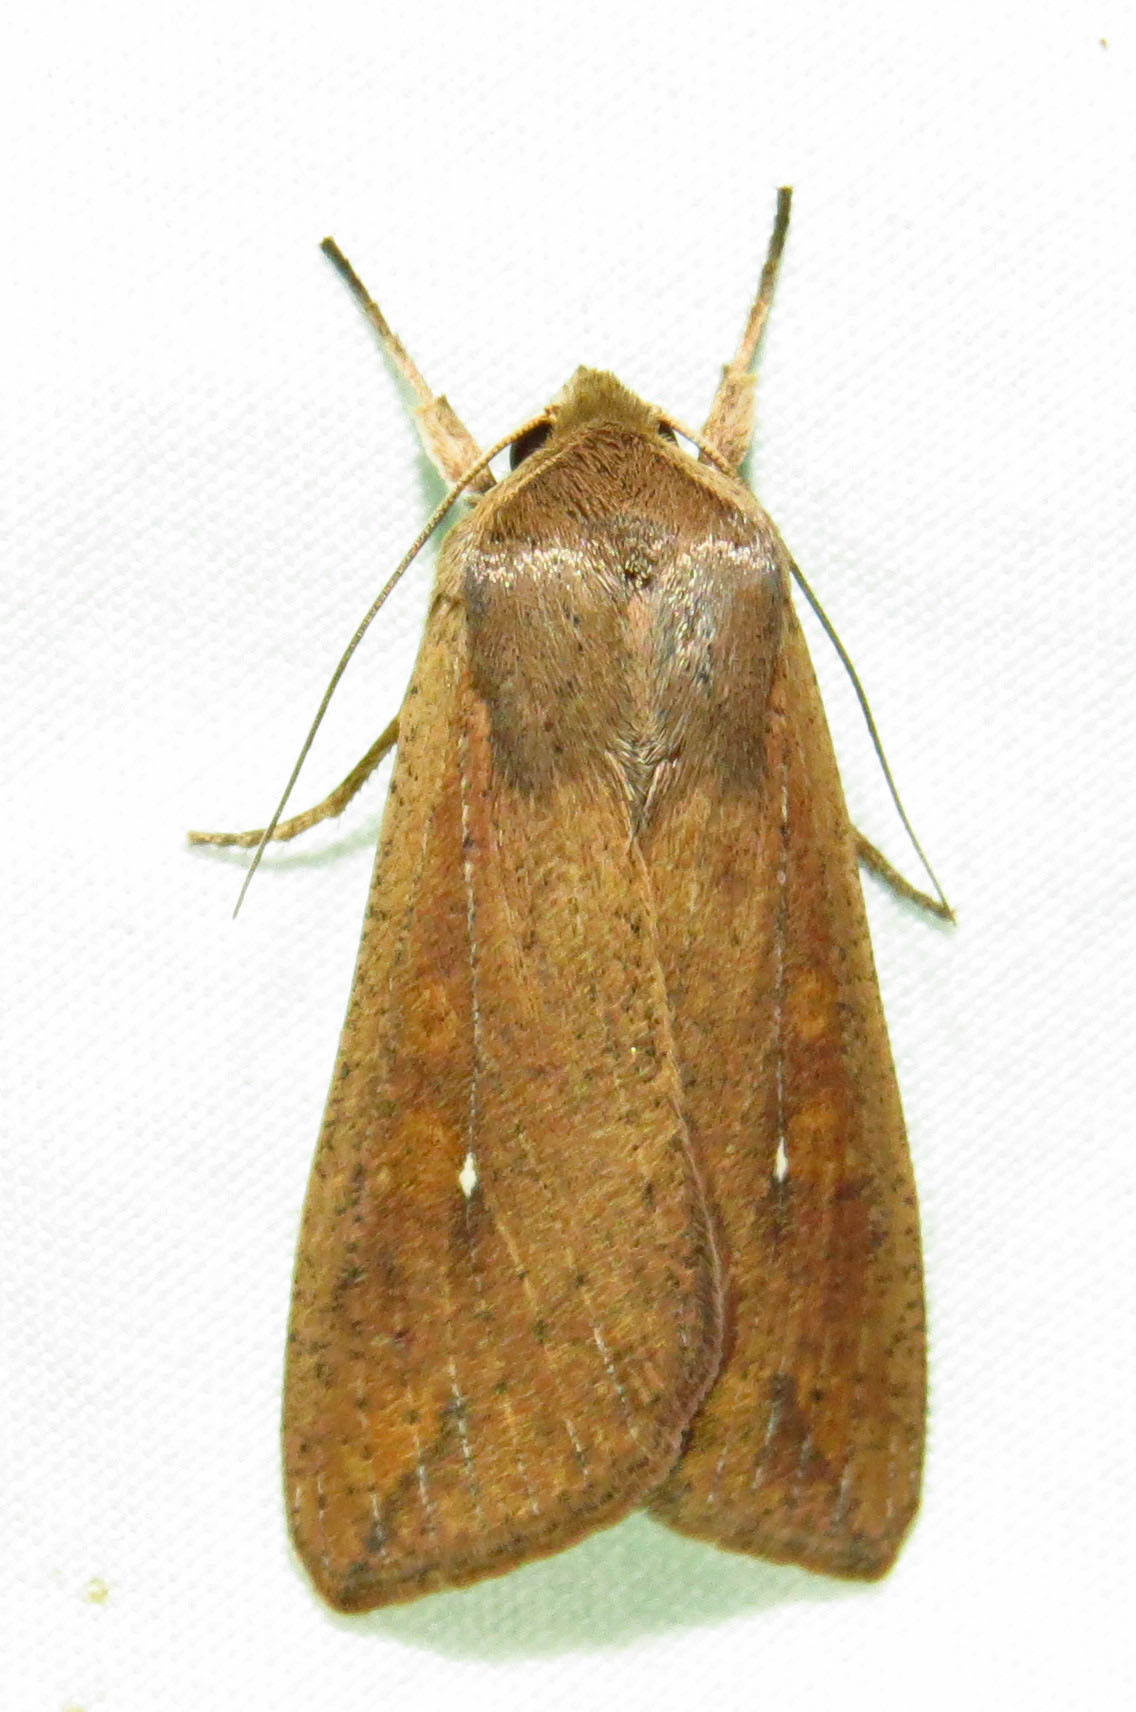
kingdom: Animalia
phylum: Arthropoda
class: Insecta
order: Lepidoptera
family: Noctuidae
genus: Mythimna
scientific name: Mythimna unipuncta
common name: White-speck
